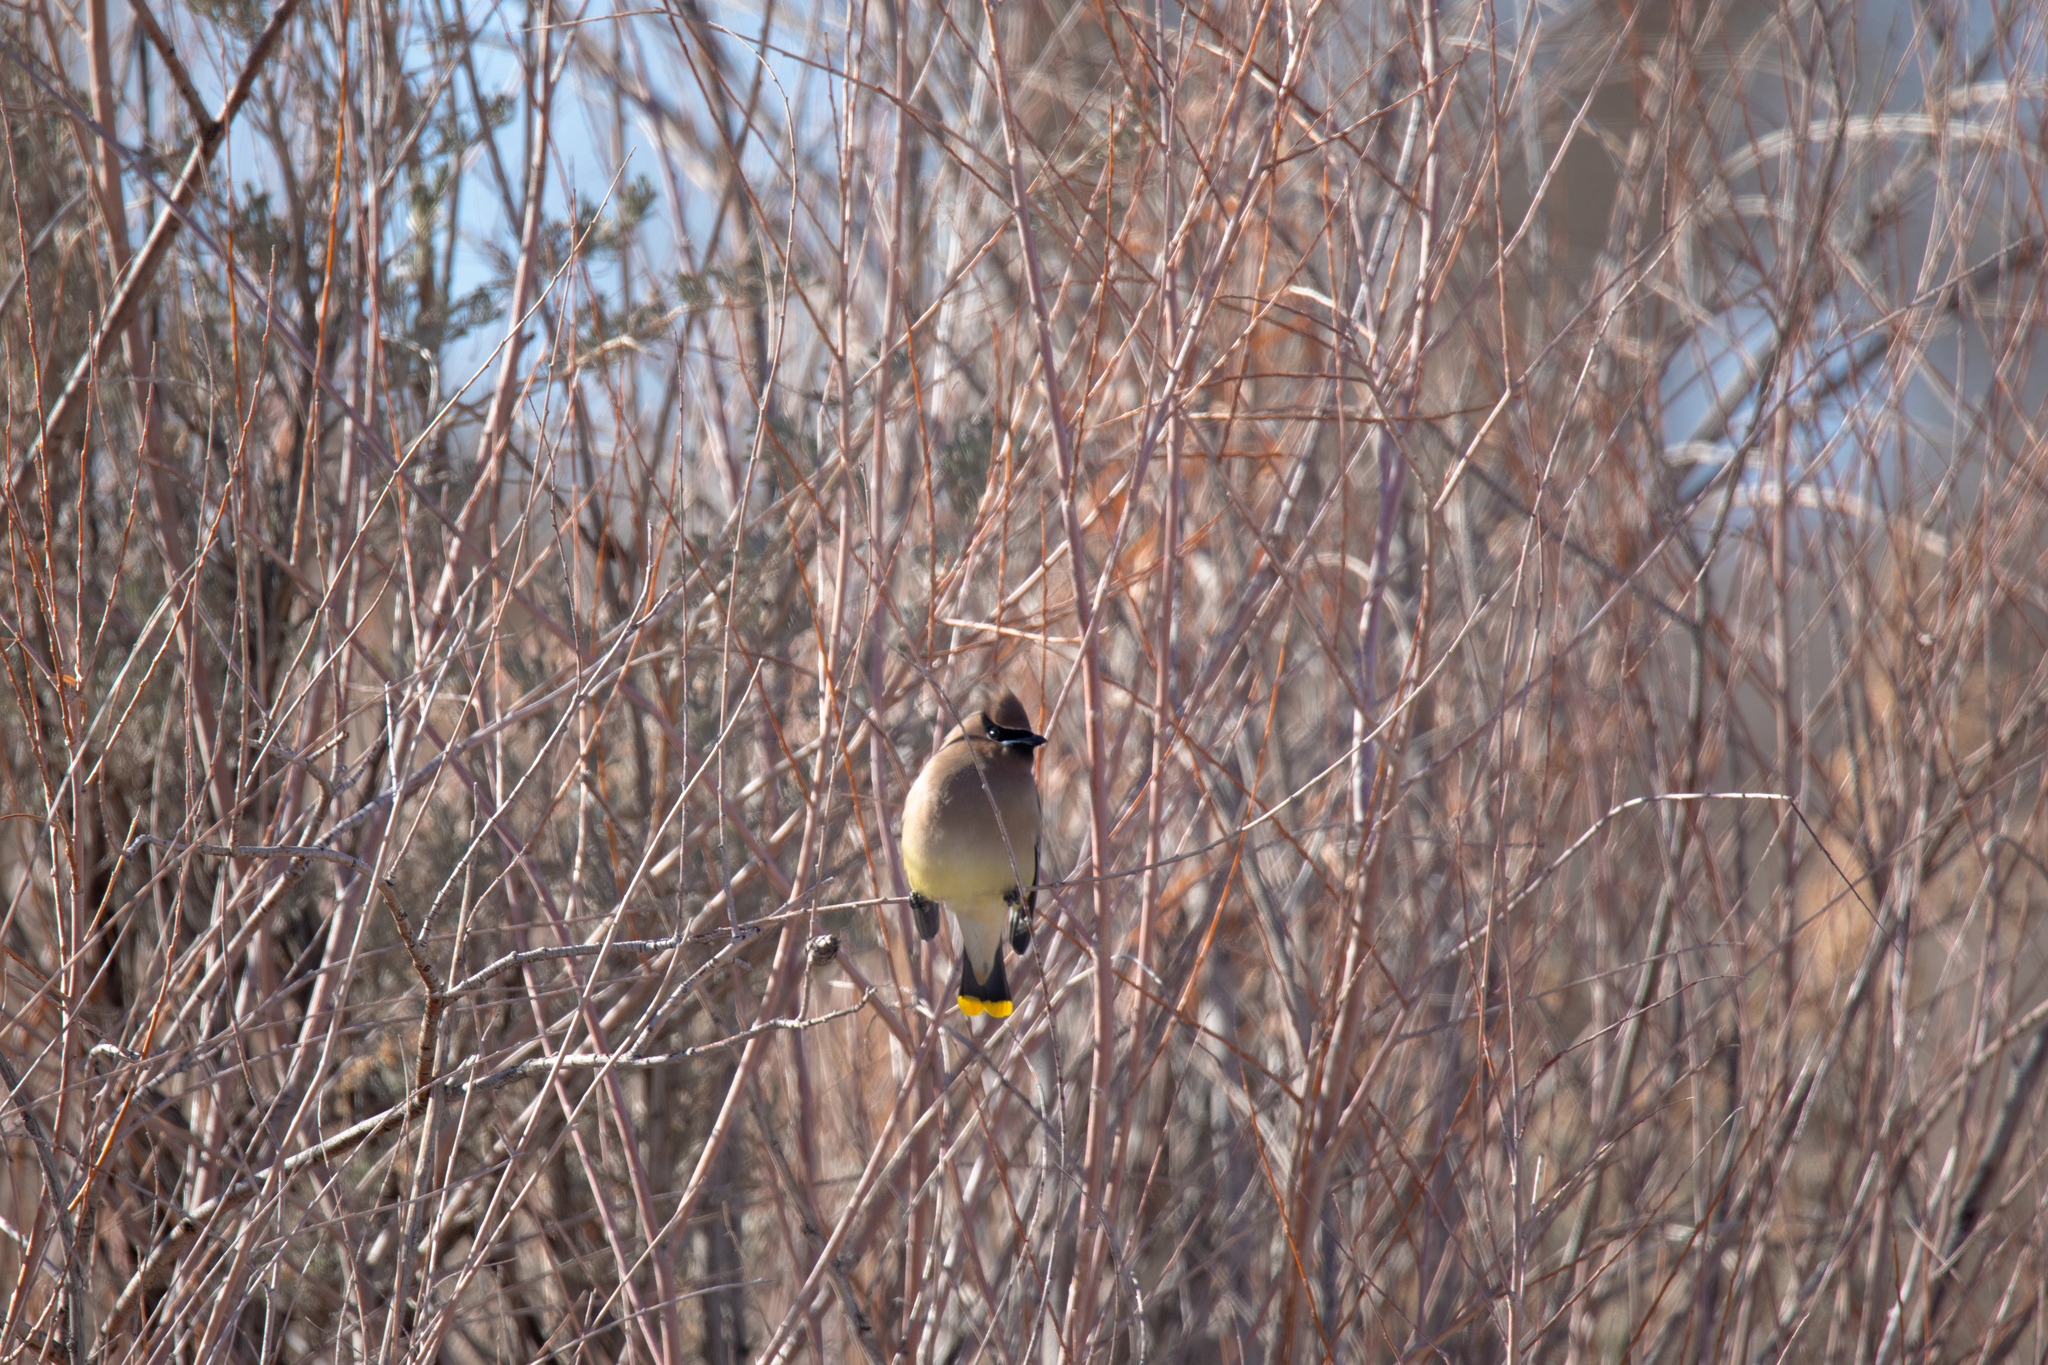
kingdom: Animalia
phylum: Chordata
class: Aves
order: Passeriformes
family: Bombycillidae
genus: Bombycilla
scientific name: Bombycilla cedrorum
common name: Cedar waxwing
